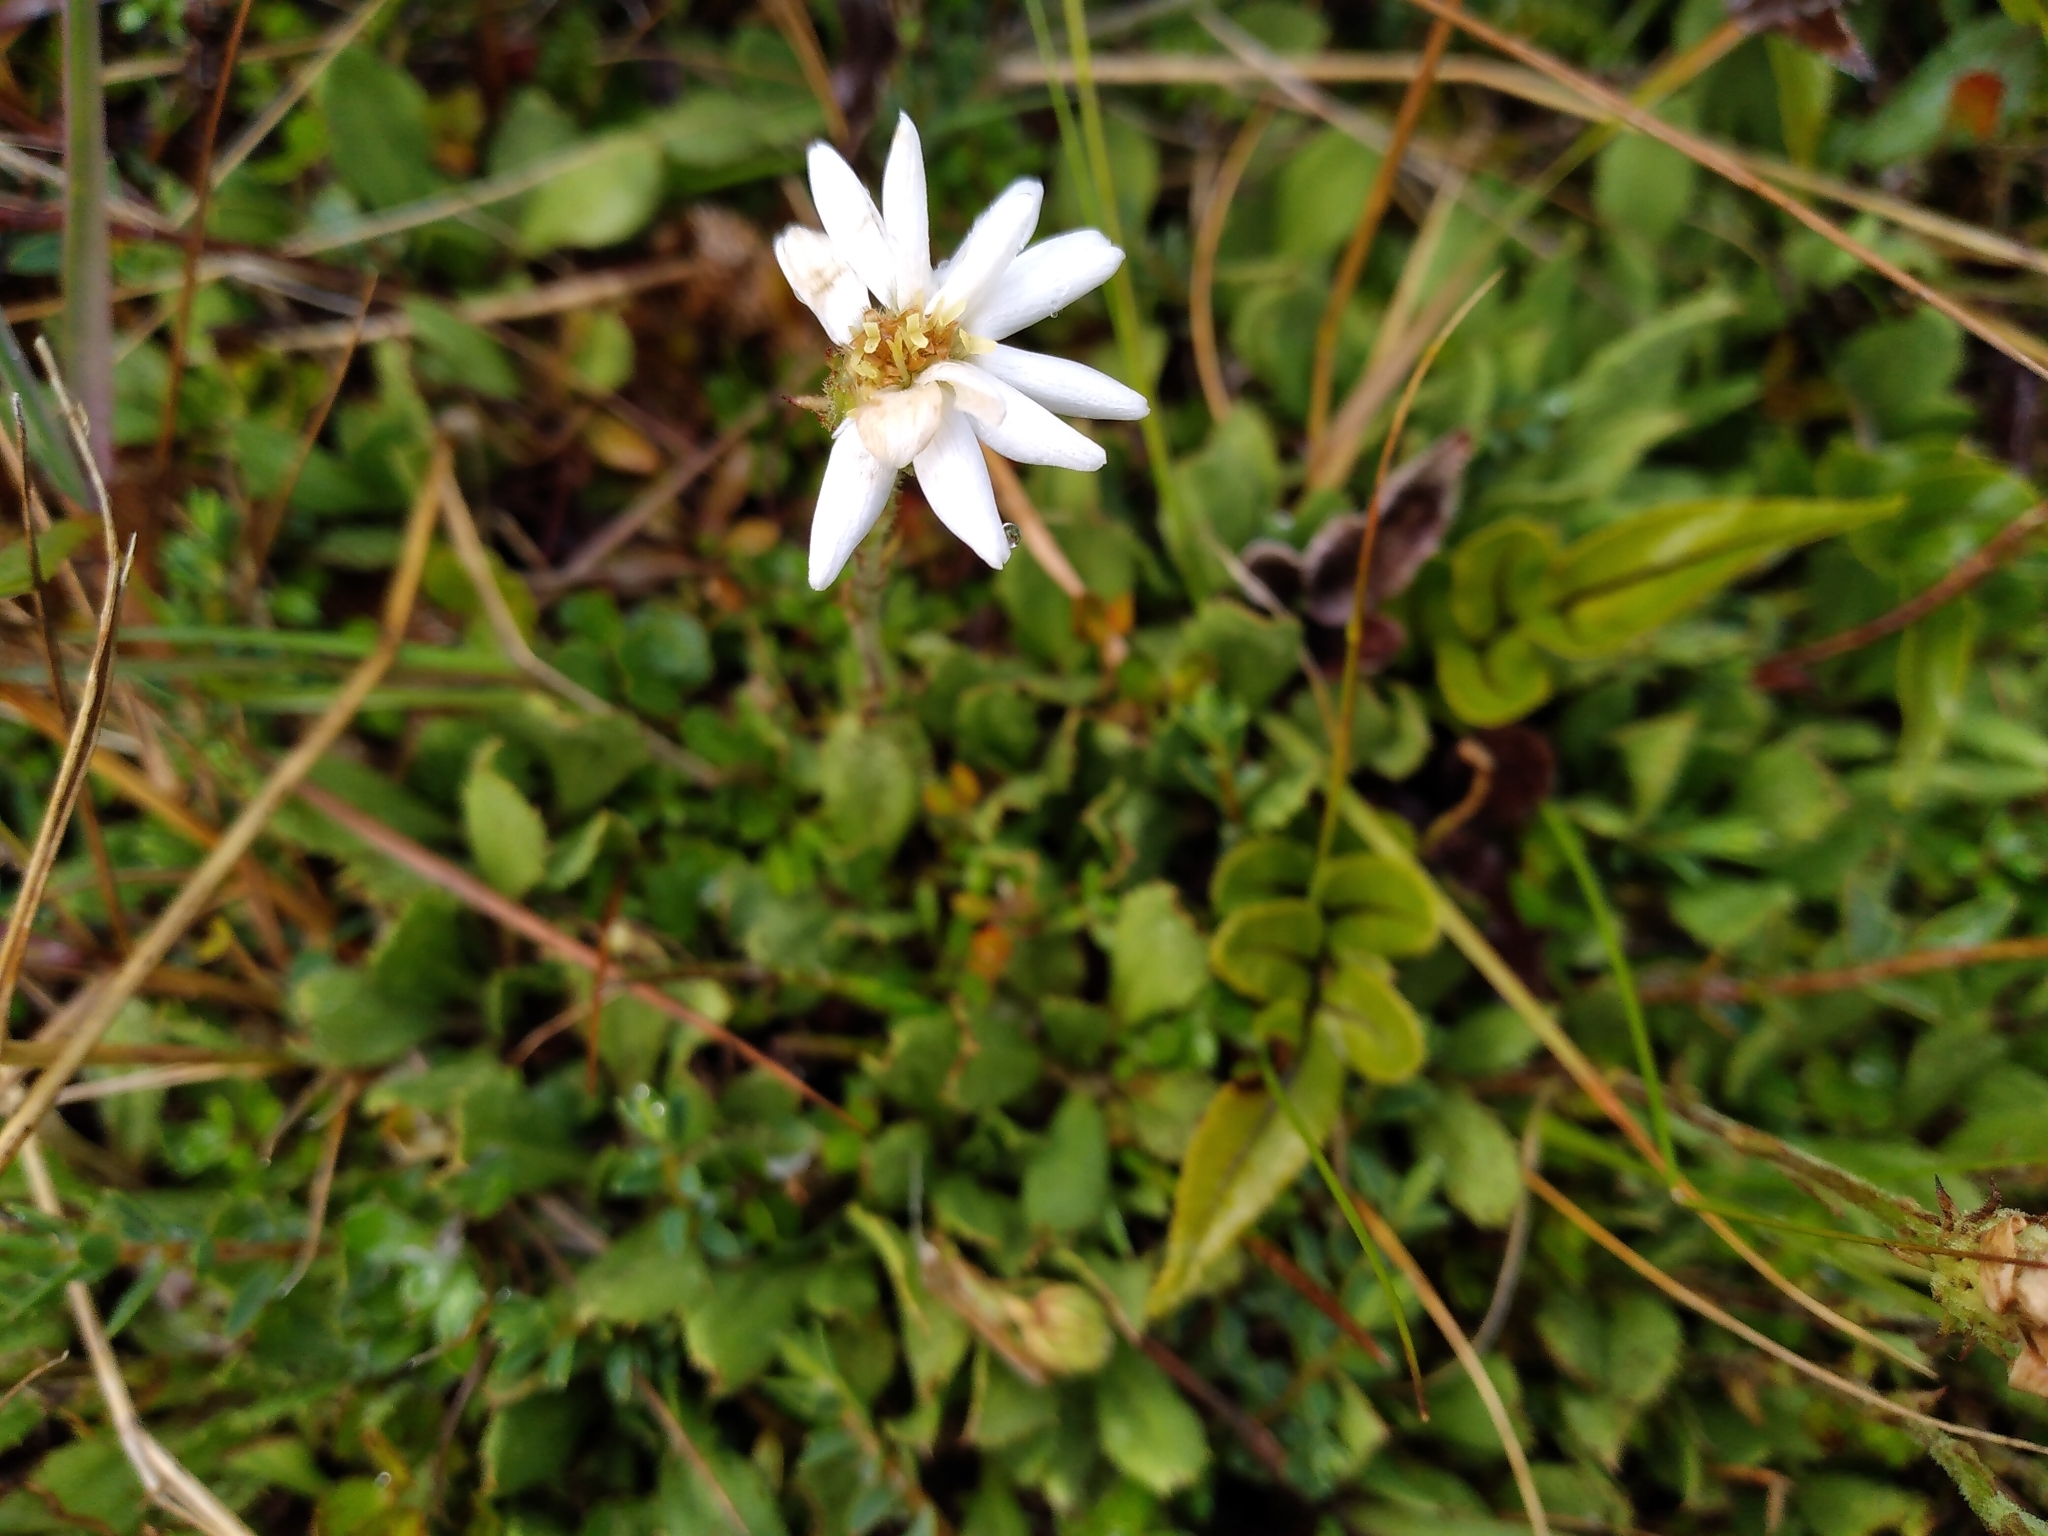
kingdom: Plantae
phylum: Tracheophyta
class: Magnoliopsida
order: Asterales
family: Asteraceae
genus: Celmisia
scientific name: Celmisia glandulosa
